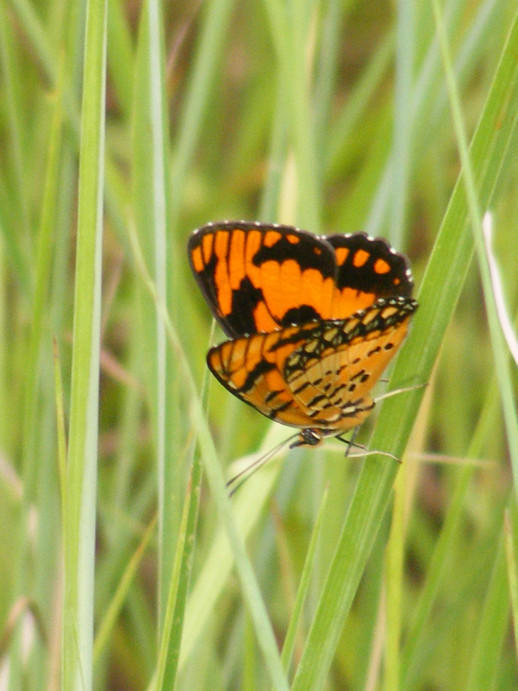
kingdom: Animalia
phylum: Arthropoda
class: Insecta
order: Lepidoptera
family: Nymphalidae
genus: Byblia
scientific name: Byblia acheloia
